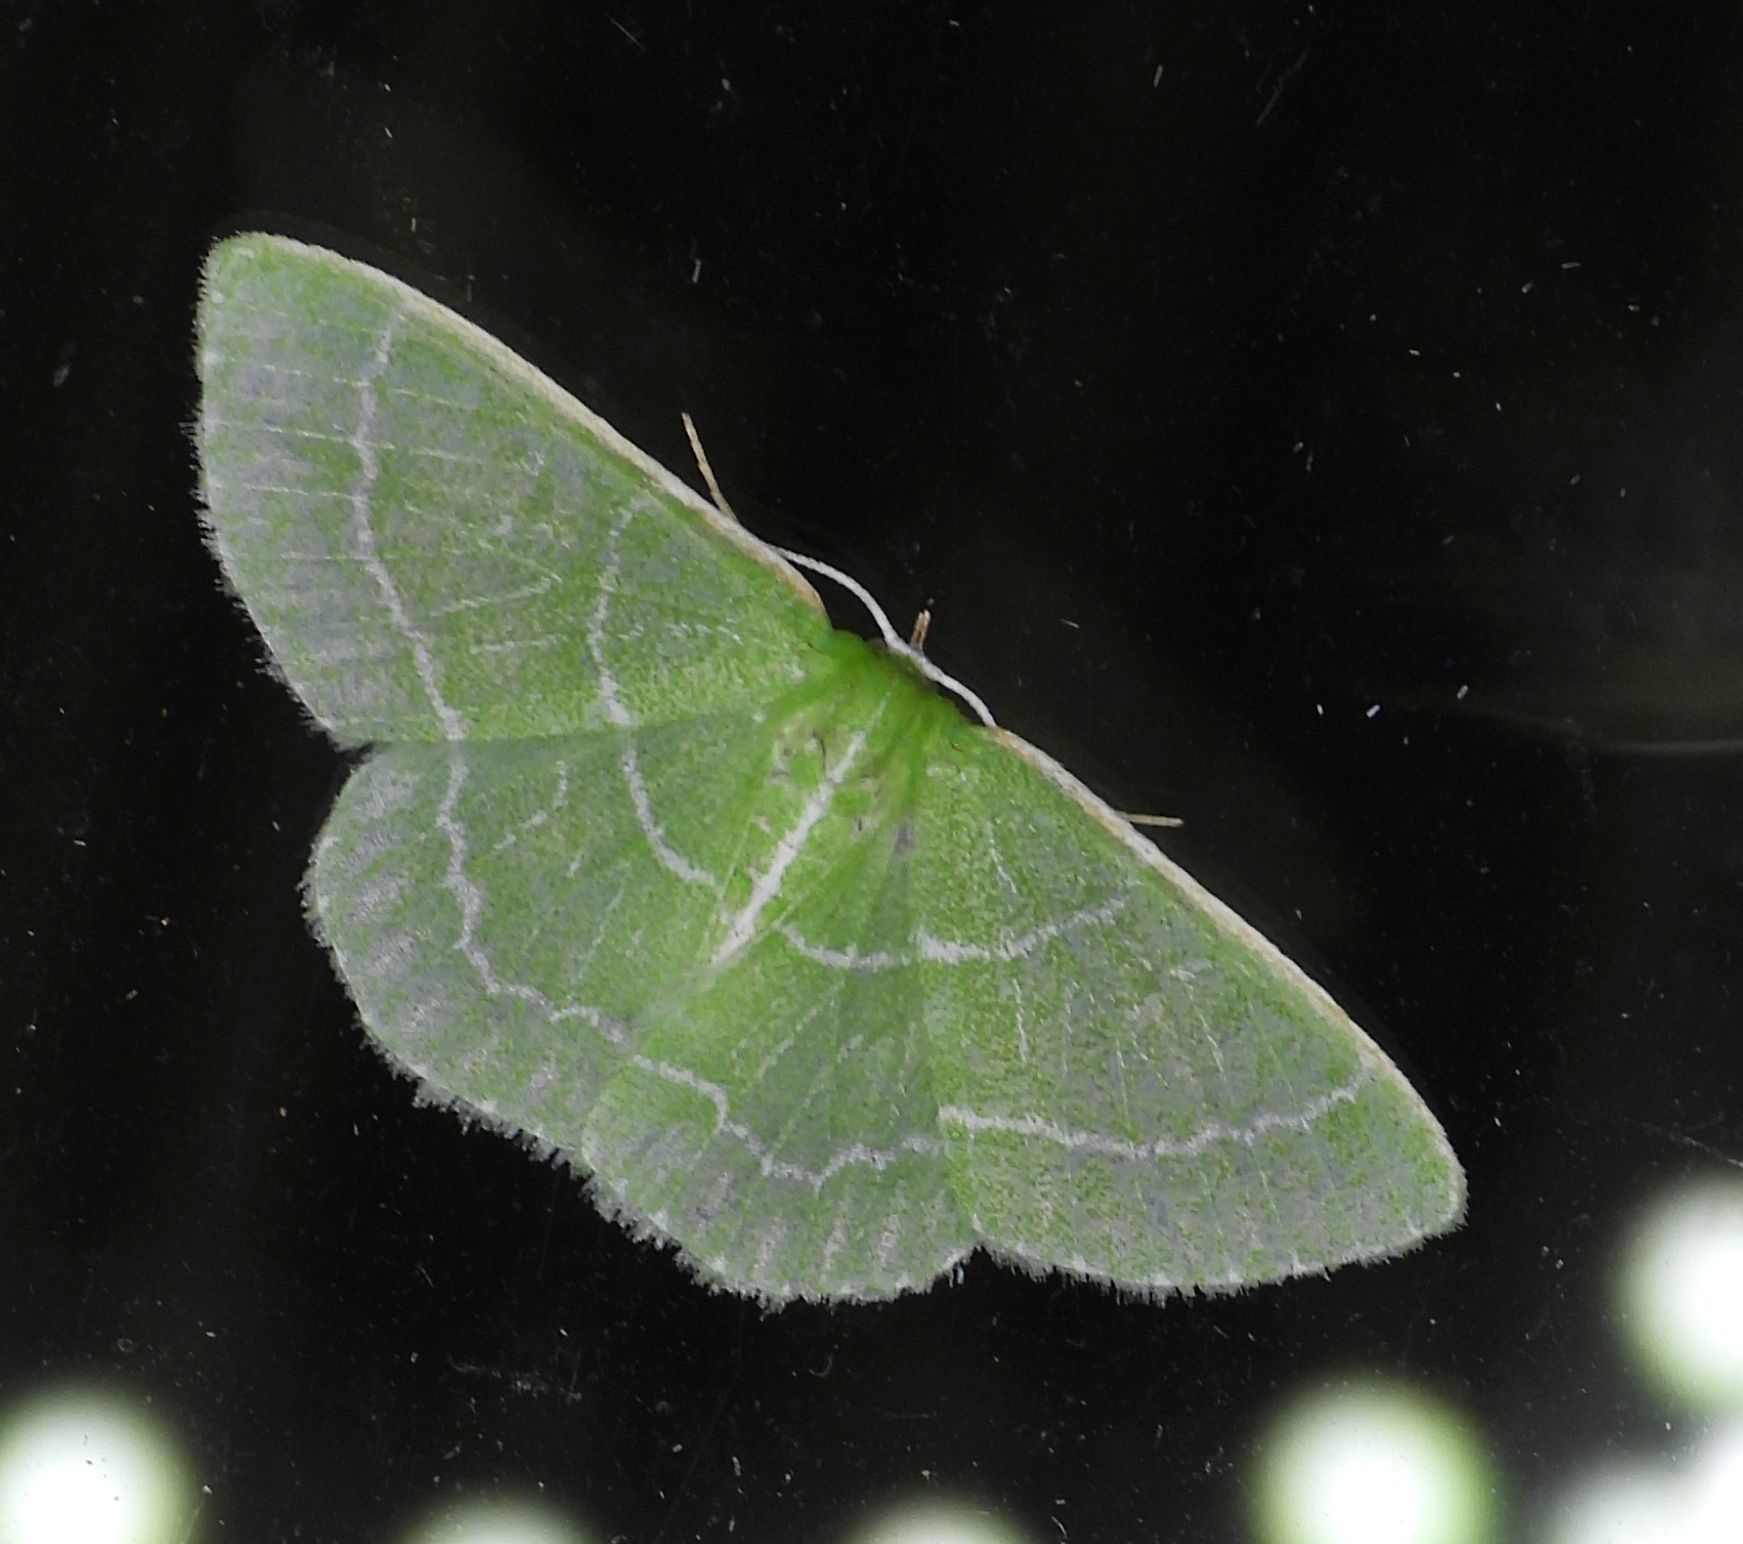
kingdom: Animalia
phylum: Arthropoda
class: Insecta
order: Lepidoptera
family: Geometridae
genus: Synchlora
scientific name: Synchlora aerata
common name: Wavy-lined emerald
